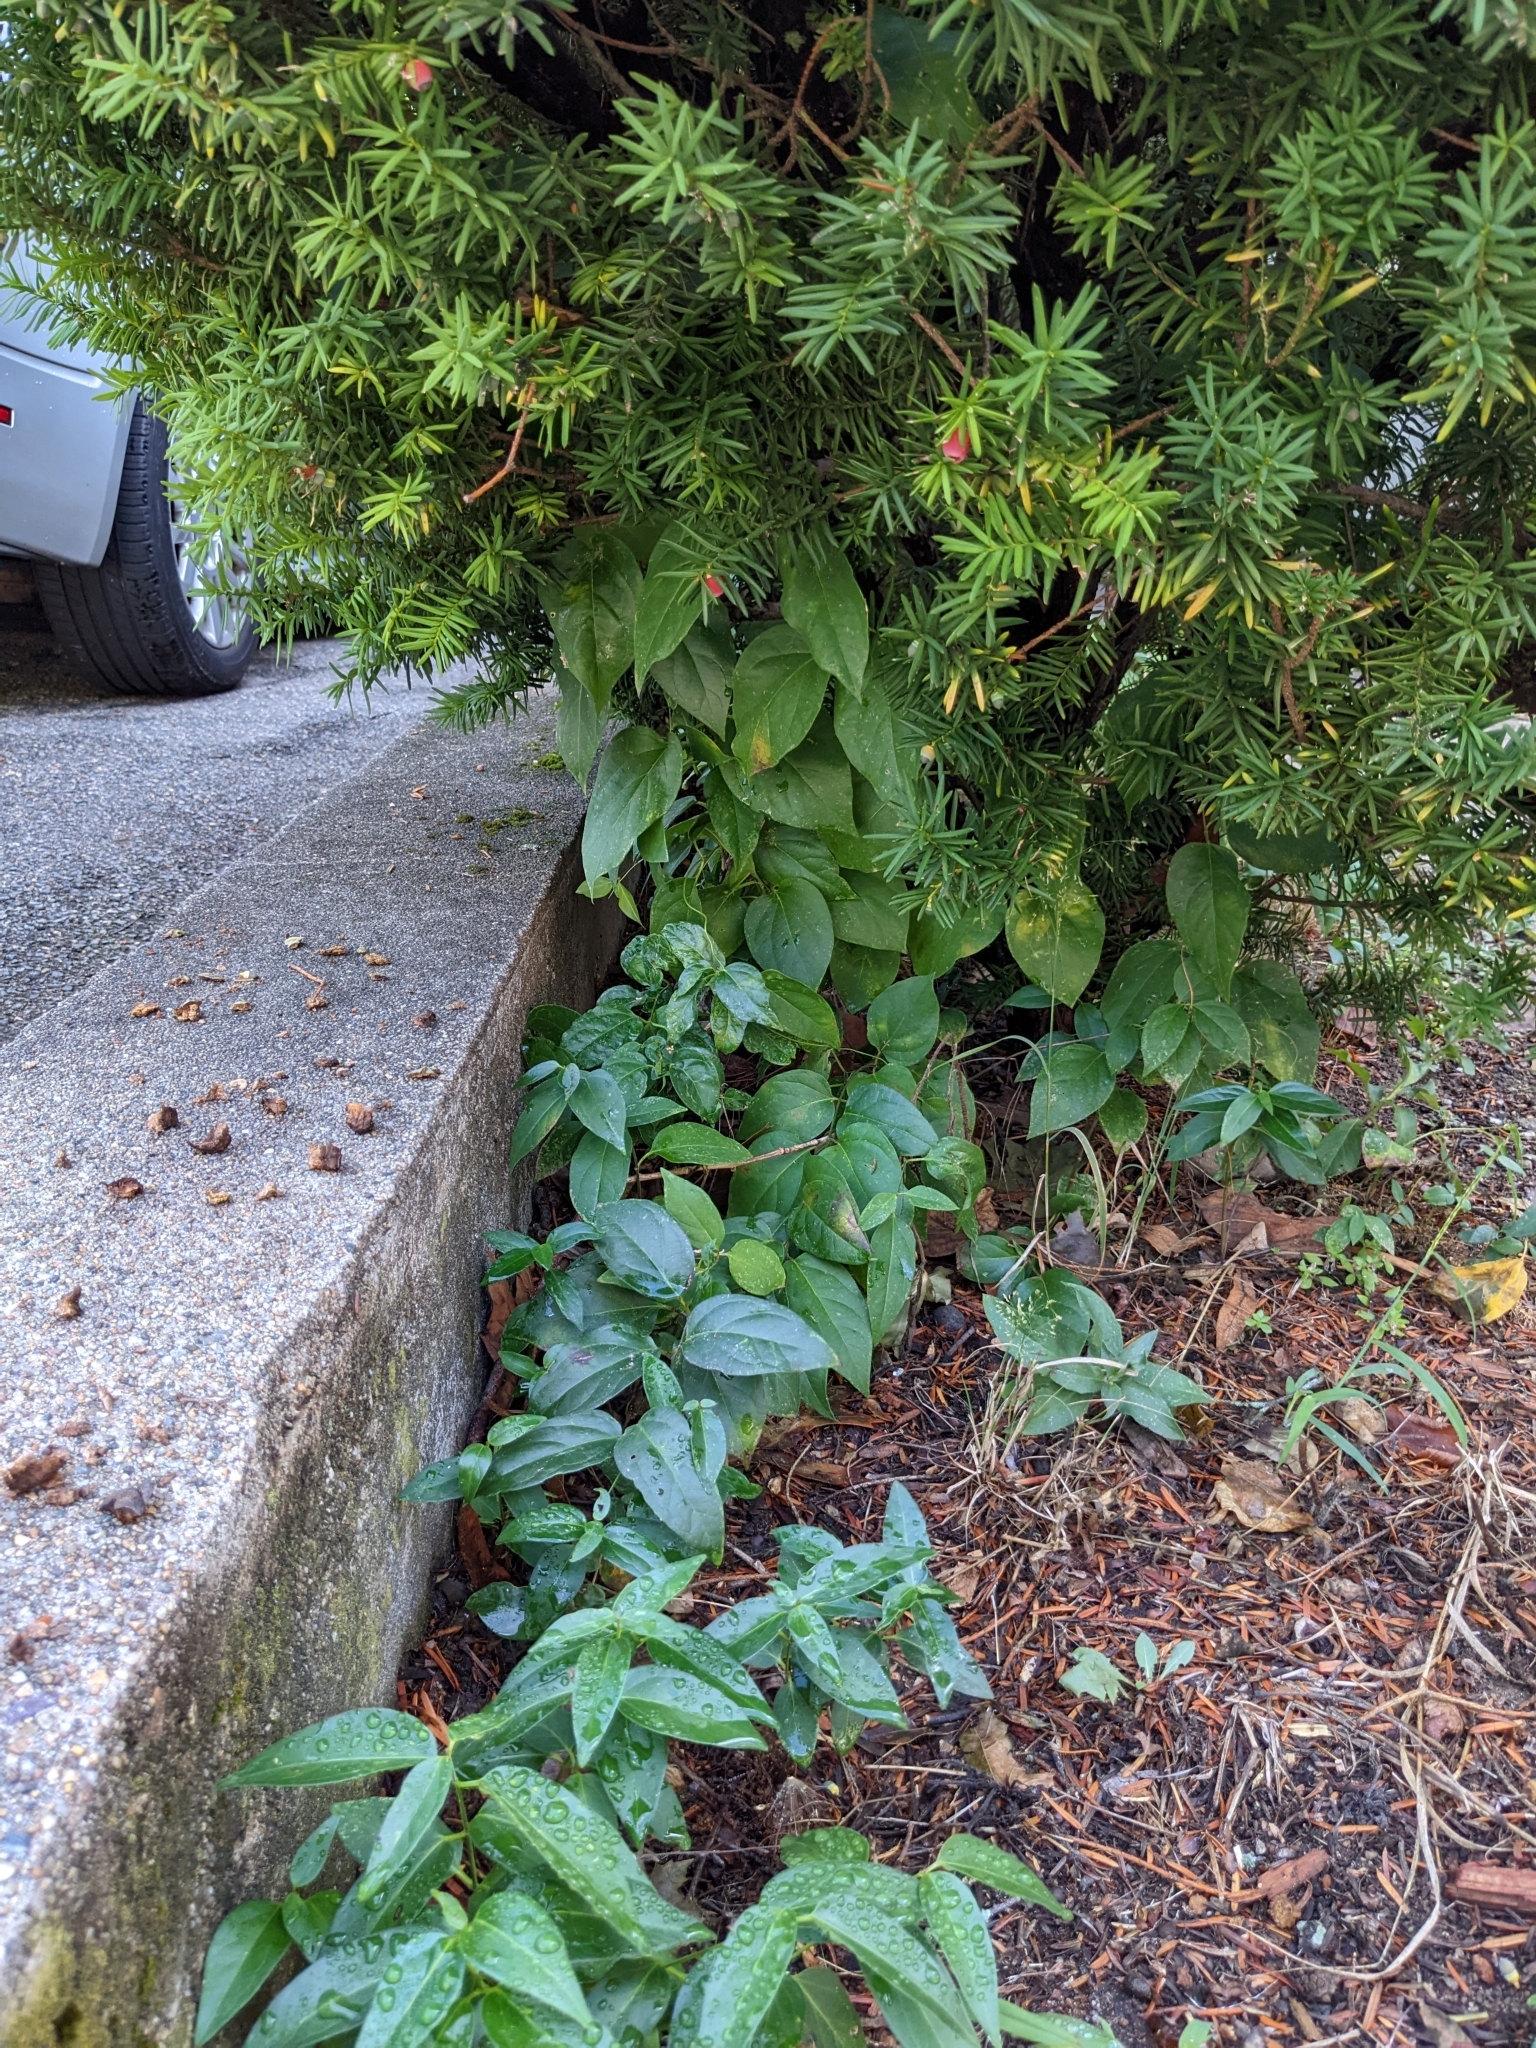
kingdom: Plantae
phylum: Tracheophyta
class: Magnoliopsida
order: Gentianales
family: Apocynaceae
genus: Vincetoxicum
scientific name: Vincetoxicum nigrum
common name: Black swallow-wort
